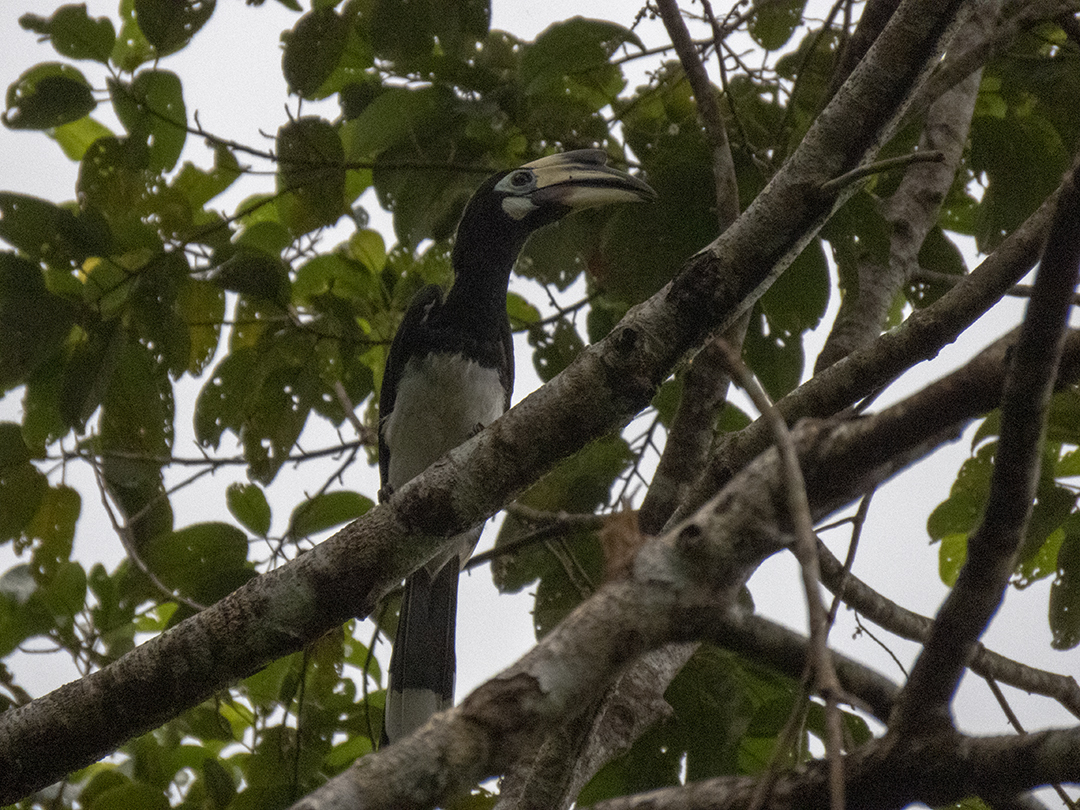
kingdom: Animalia
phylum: Chordata
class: Aves
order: Bucerotiformes
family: Bucerotidae
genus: Anthracoceros
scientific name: Anthracoceros albirostris
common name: Oriental pied-hornbill
